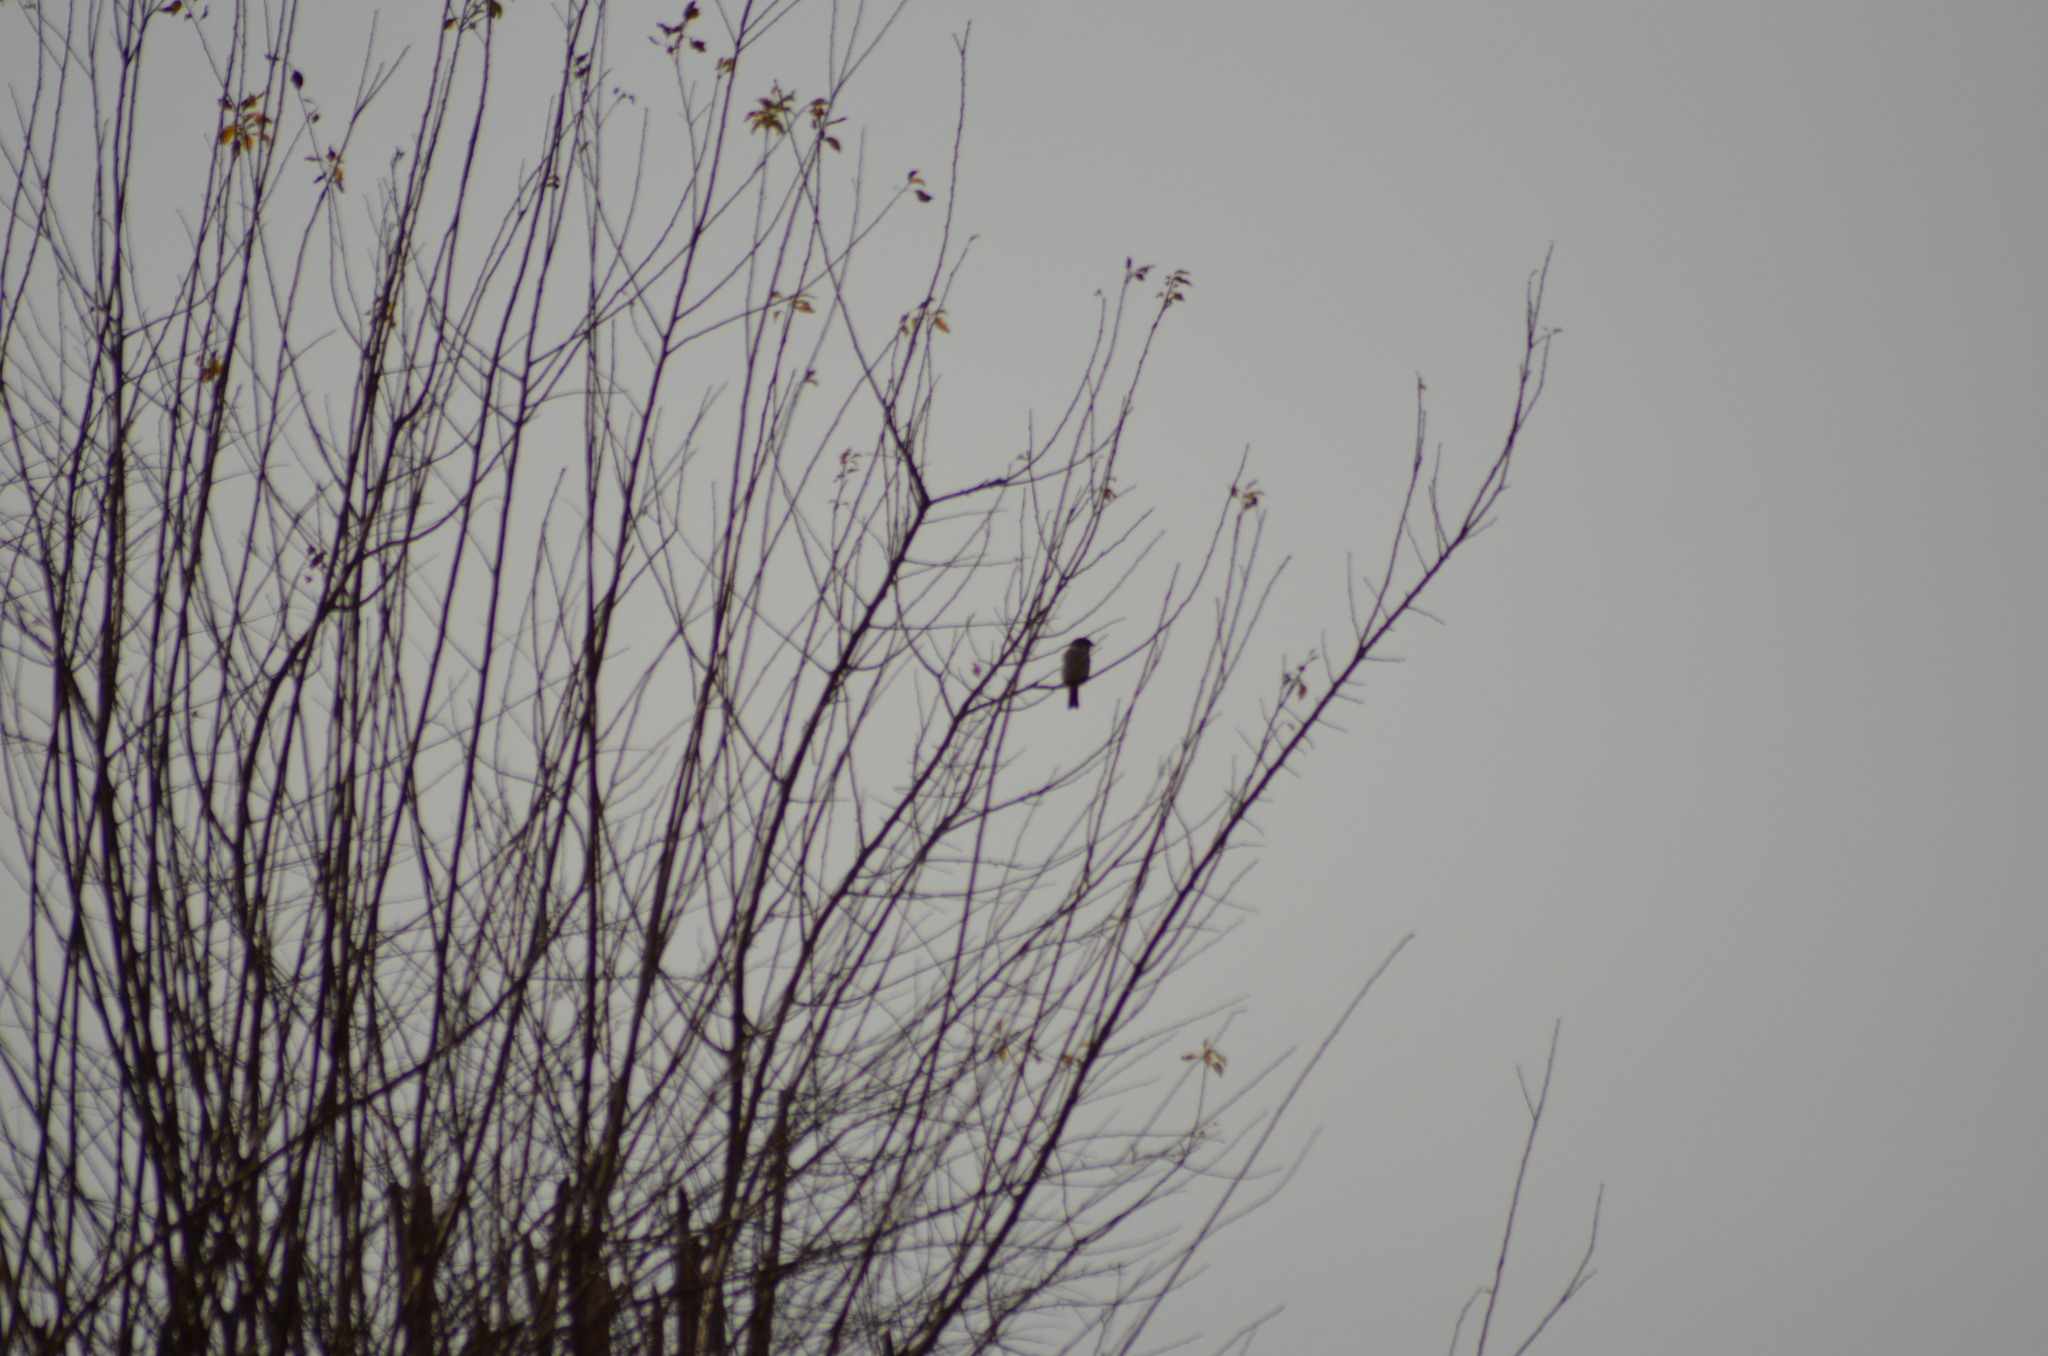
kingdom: Animalia
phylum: Chordata
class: Aves
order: Passeriformes
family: Passeridae
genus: Passer
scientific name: Passer montanus
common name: Eurasian tree sparrow
